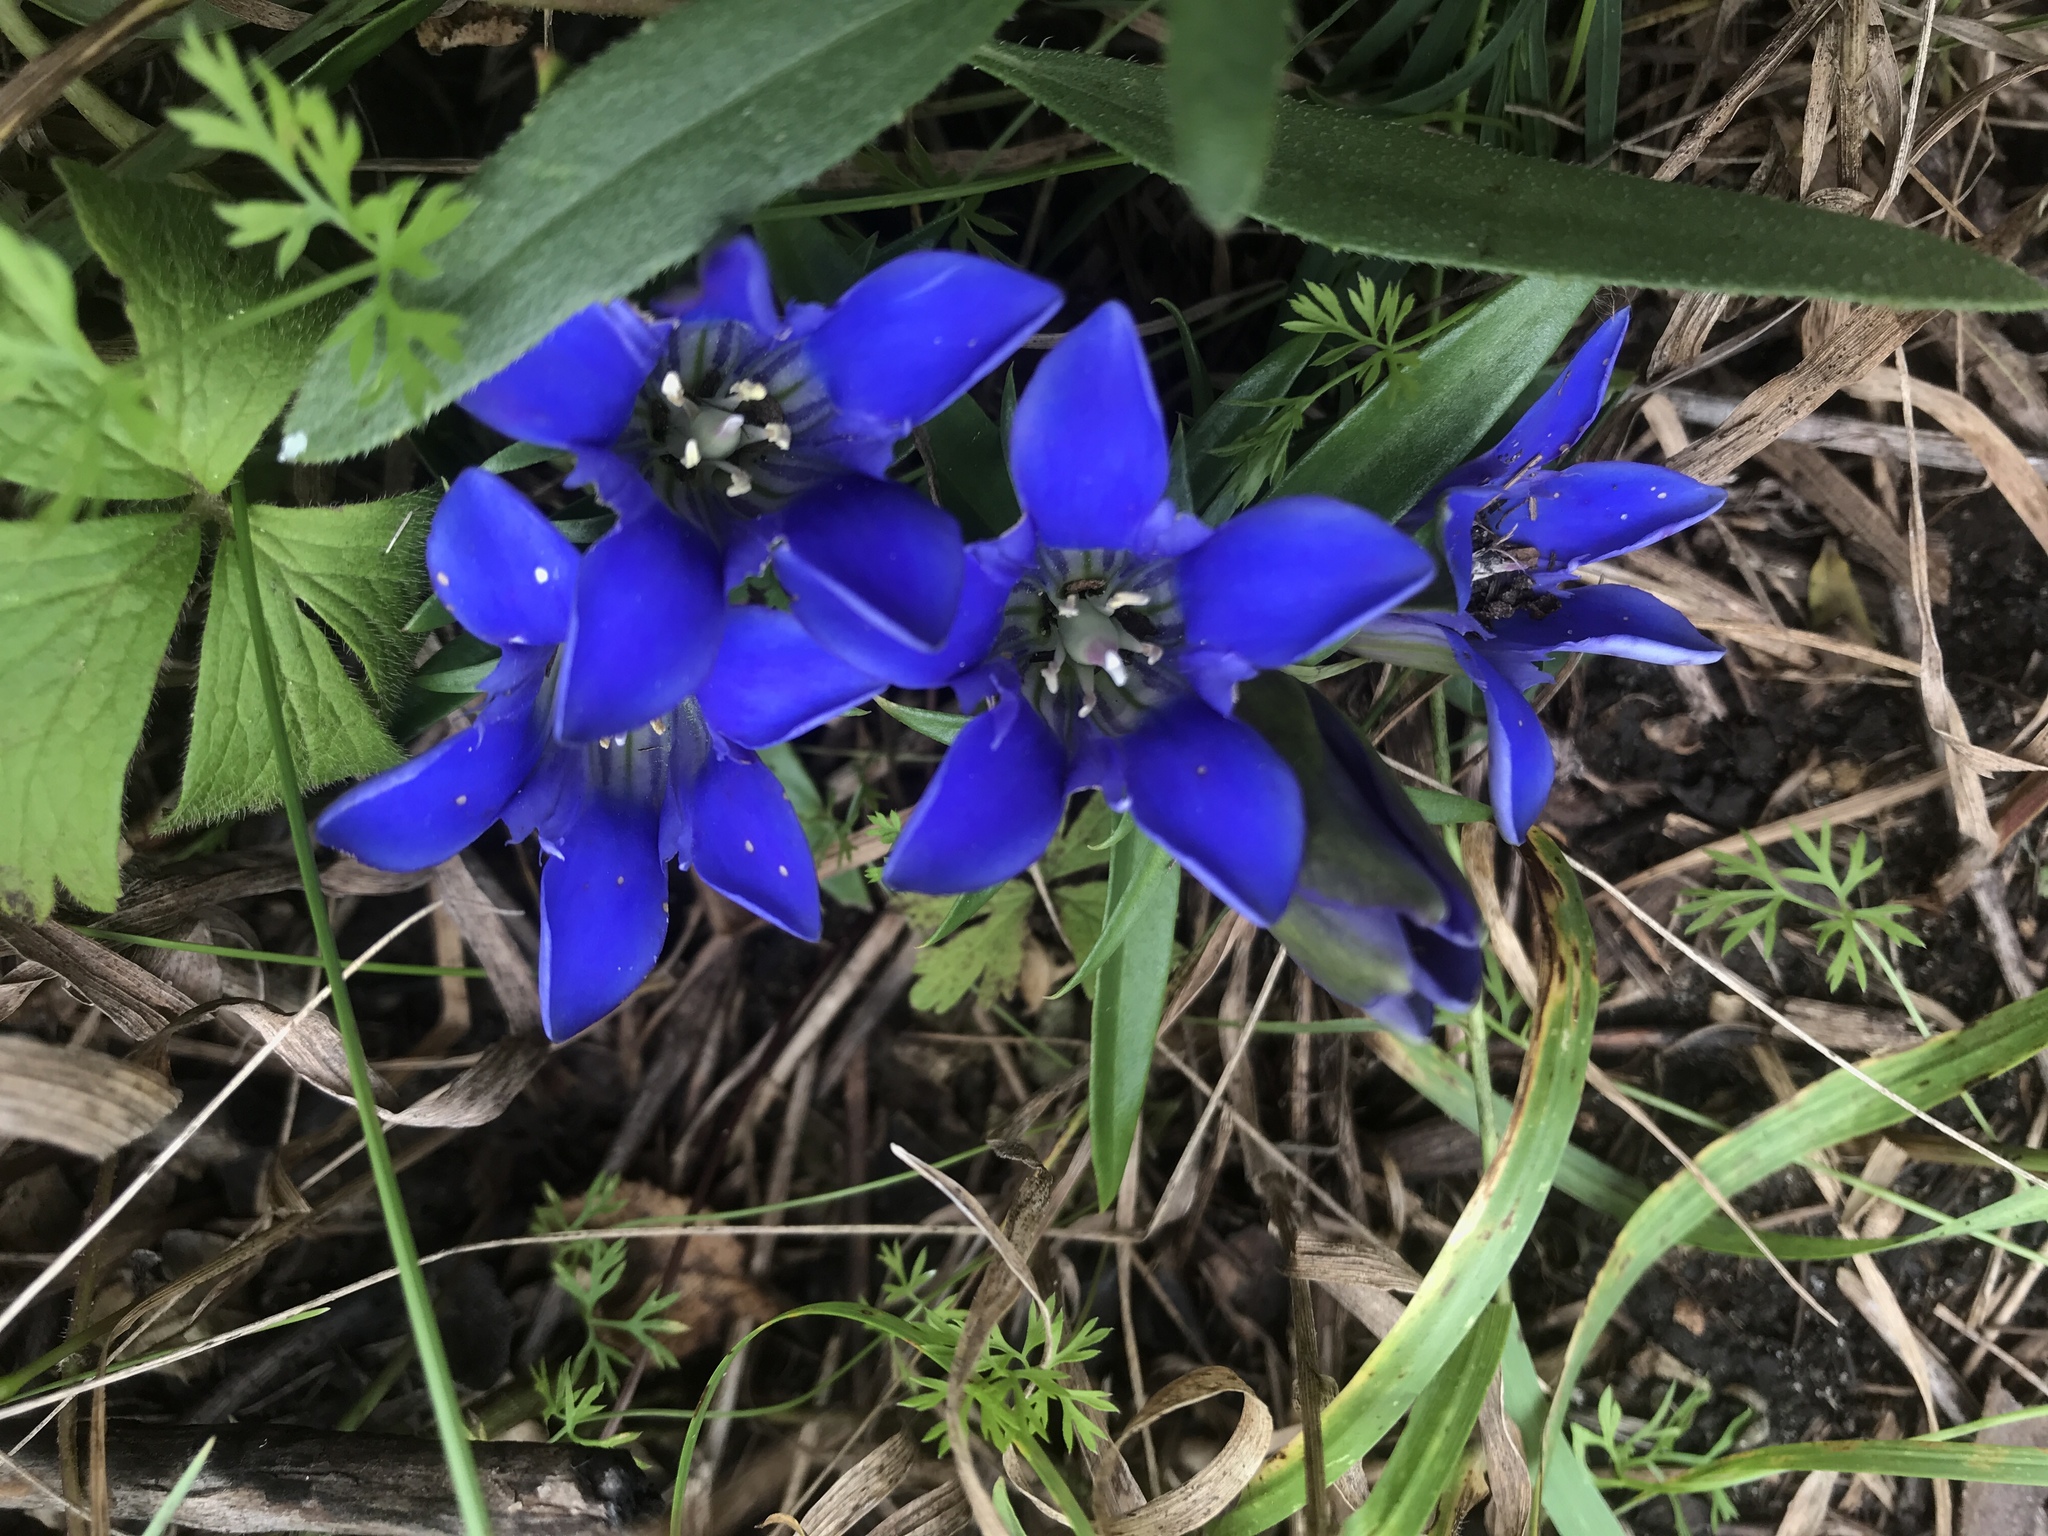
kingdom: Plantae
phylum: Tracheophyta
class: Magnoliopsida
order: Gentianales
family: Gentianaceae
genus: Gentiana
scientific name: Gentiana puberulenta
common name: Downy gentian
